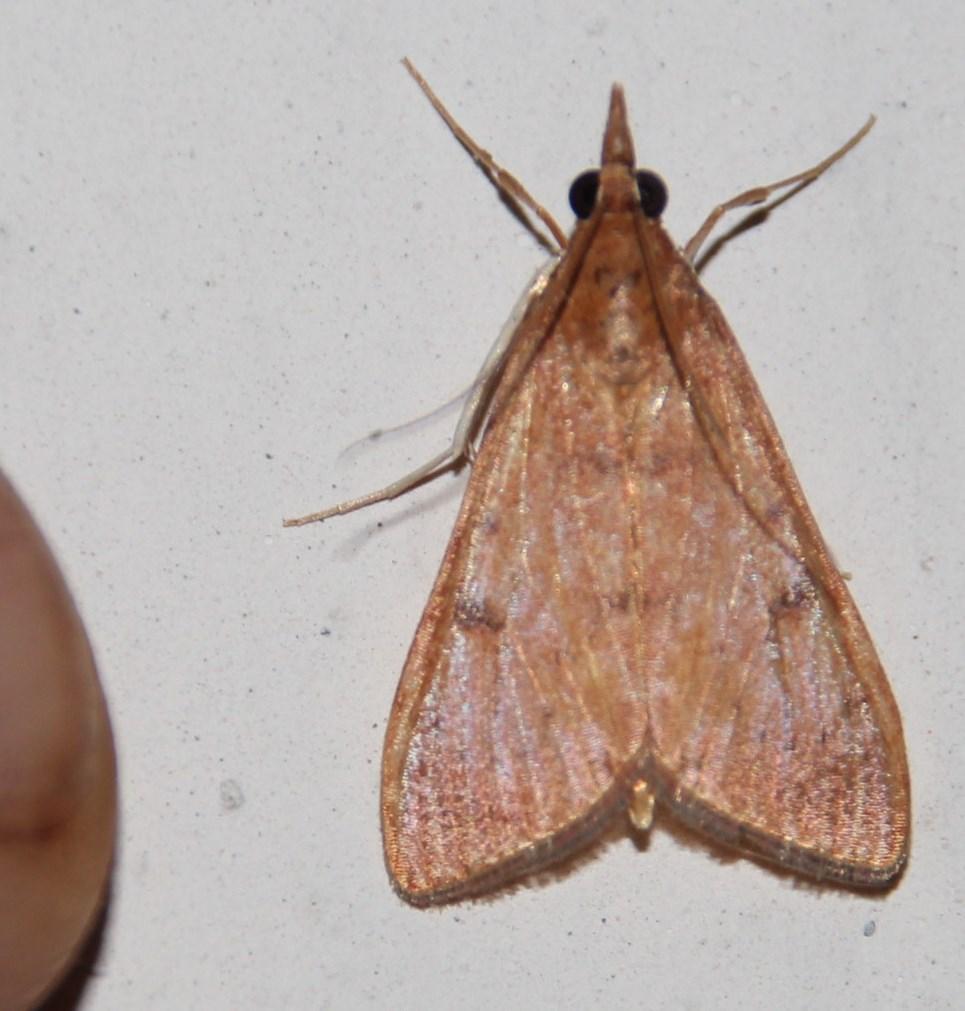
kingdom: Animalia
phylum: Arthropoda
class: Insecta
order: Lepidoptera
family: Crambidae
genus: Uresiphita
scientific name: Uresiphita gilvata
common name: Yellow-underwing pearl
